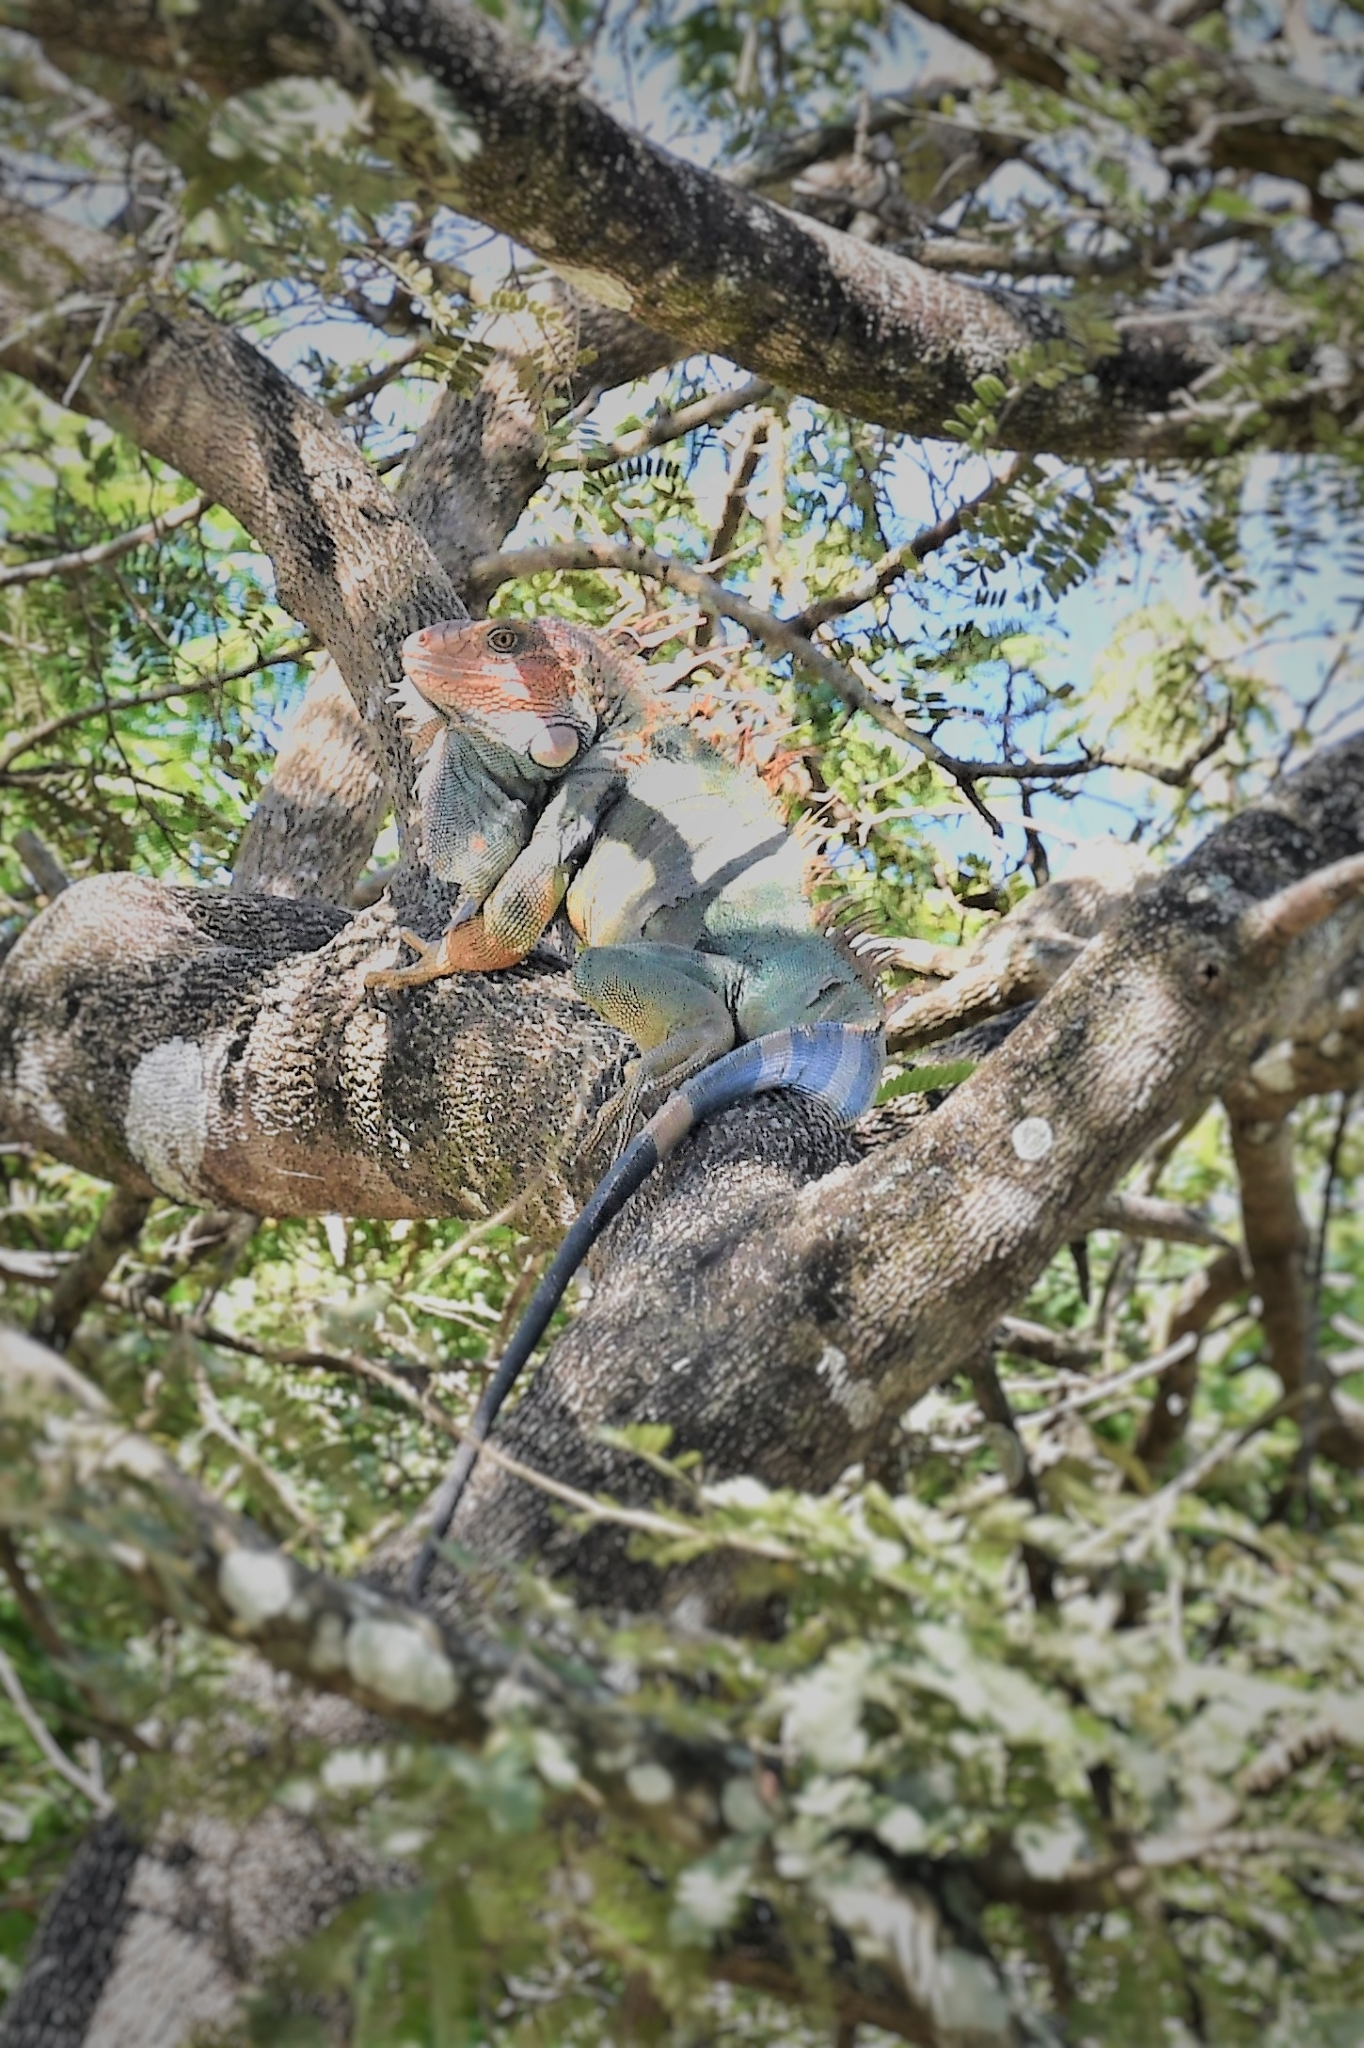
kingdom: Animalia
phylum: Chordata
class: Squamata
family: Iguanidae
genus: Iguana
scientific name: Iguana iguana
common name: Green iguana
